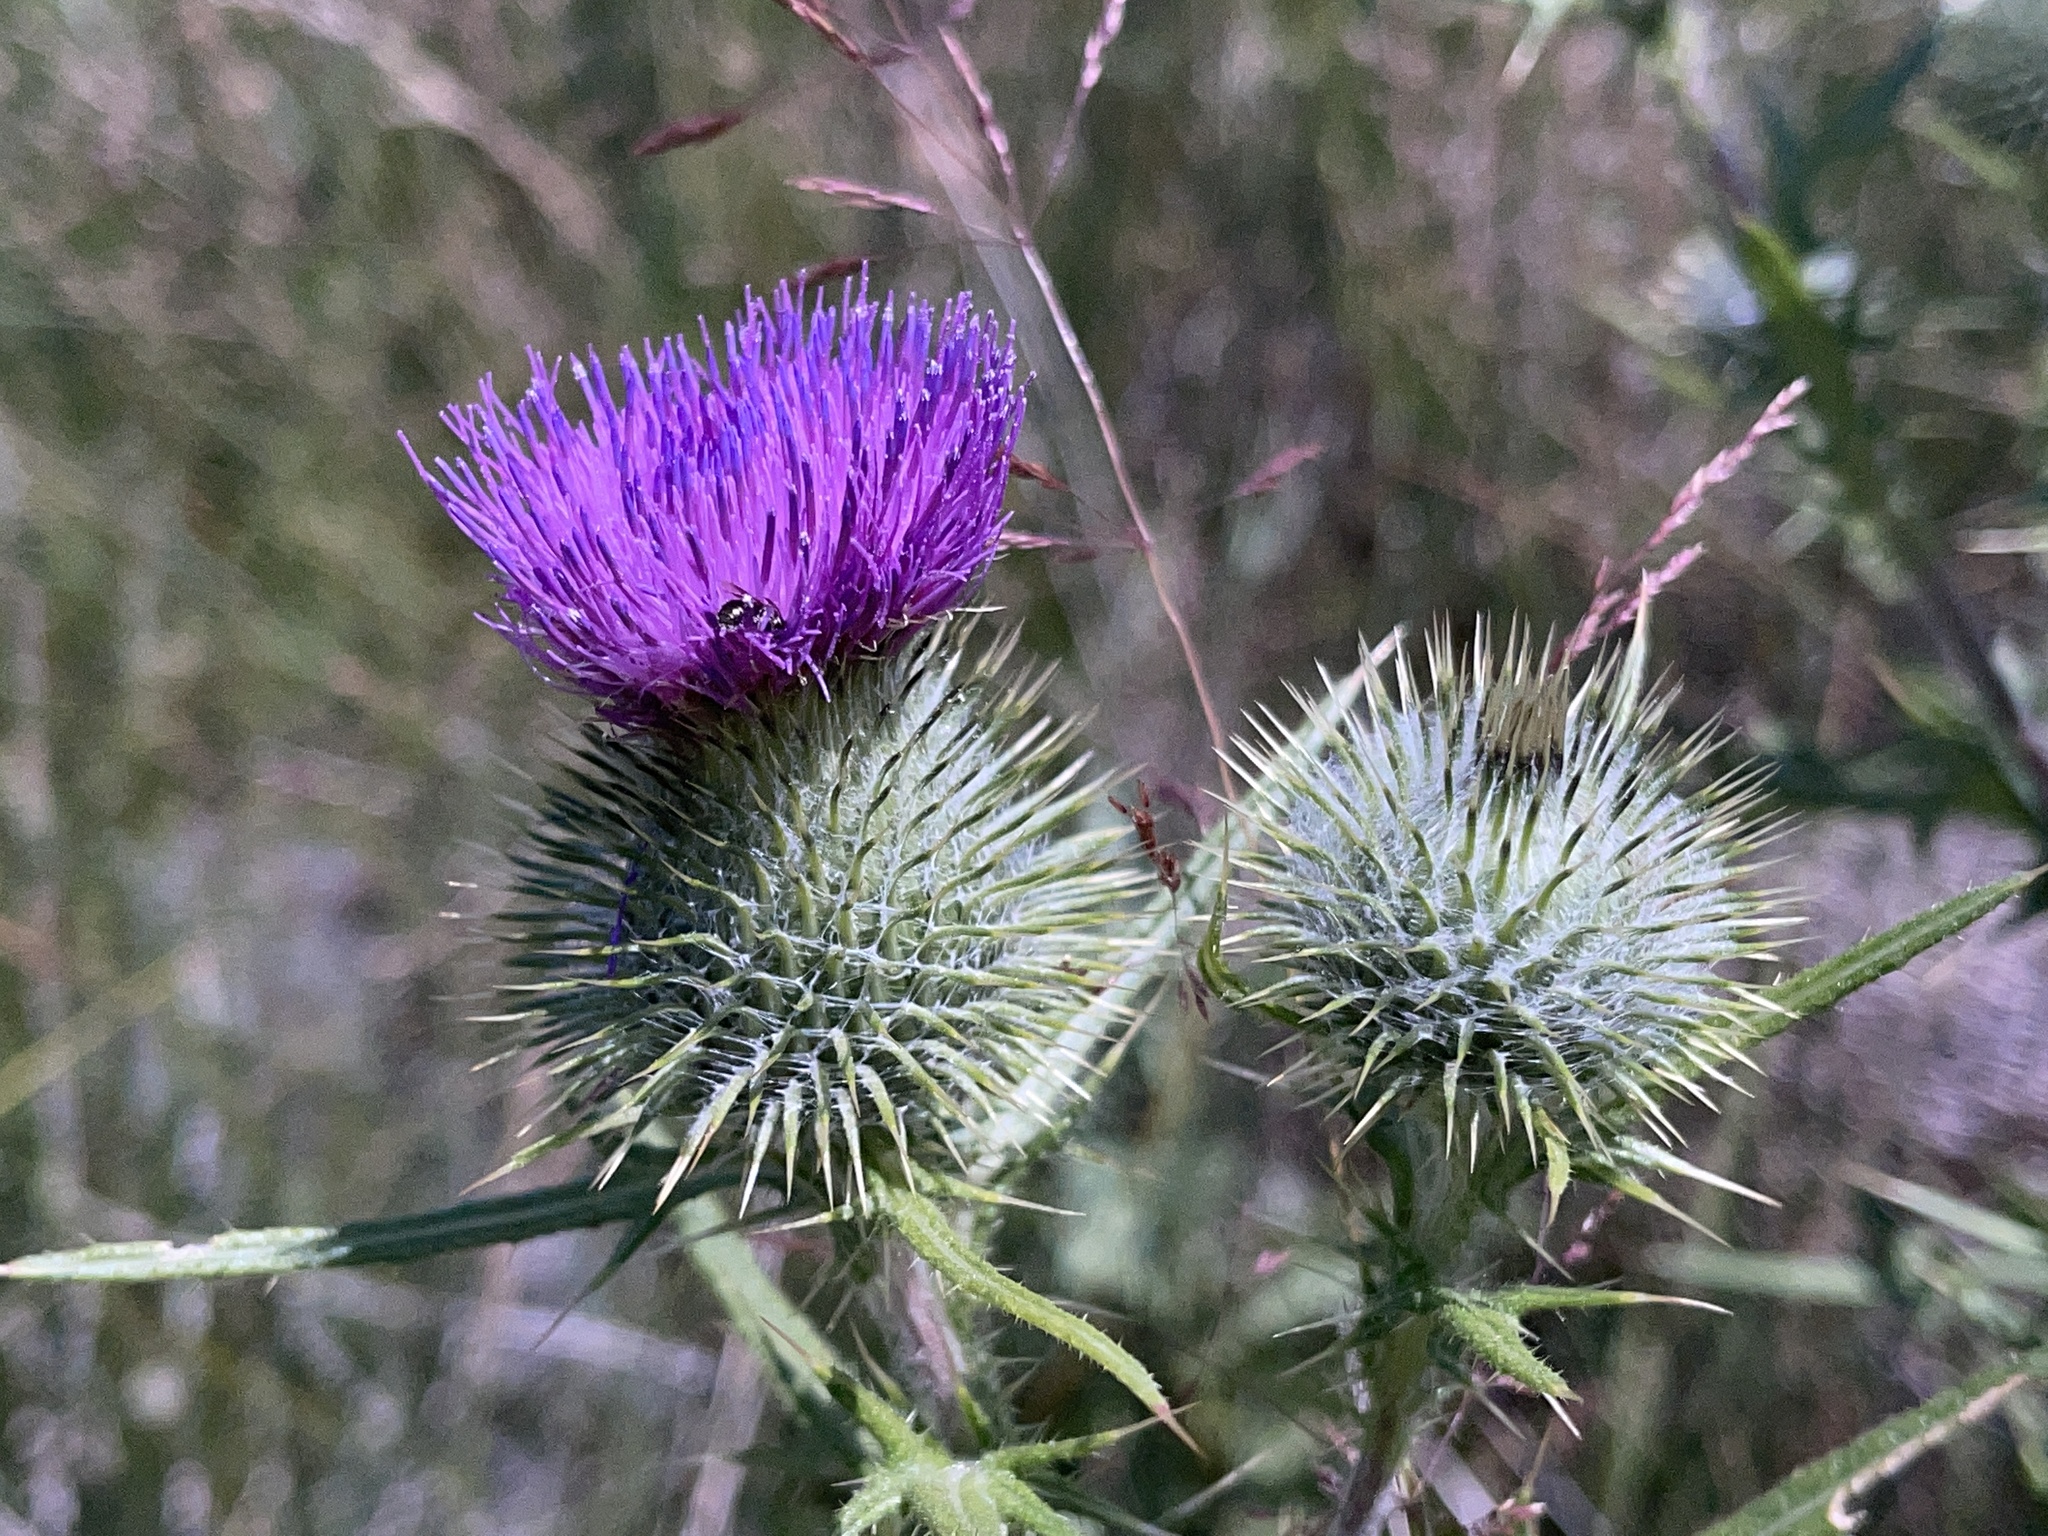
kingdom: Plantae
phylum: Tracheophyta
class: Magnoliopsida
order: Asterales
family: Asteraceae
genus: Cirsium
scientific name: Cirsium vulgare
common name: Bull thistle
